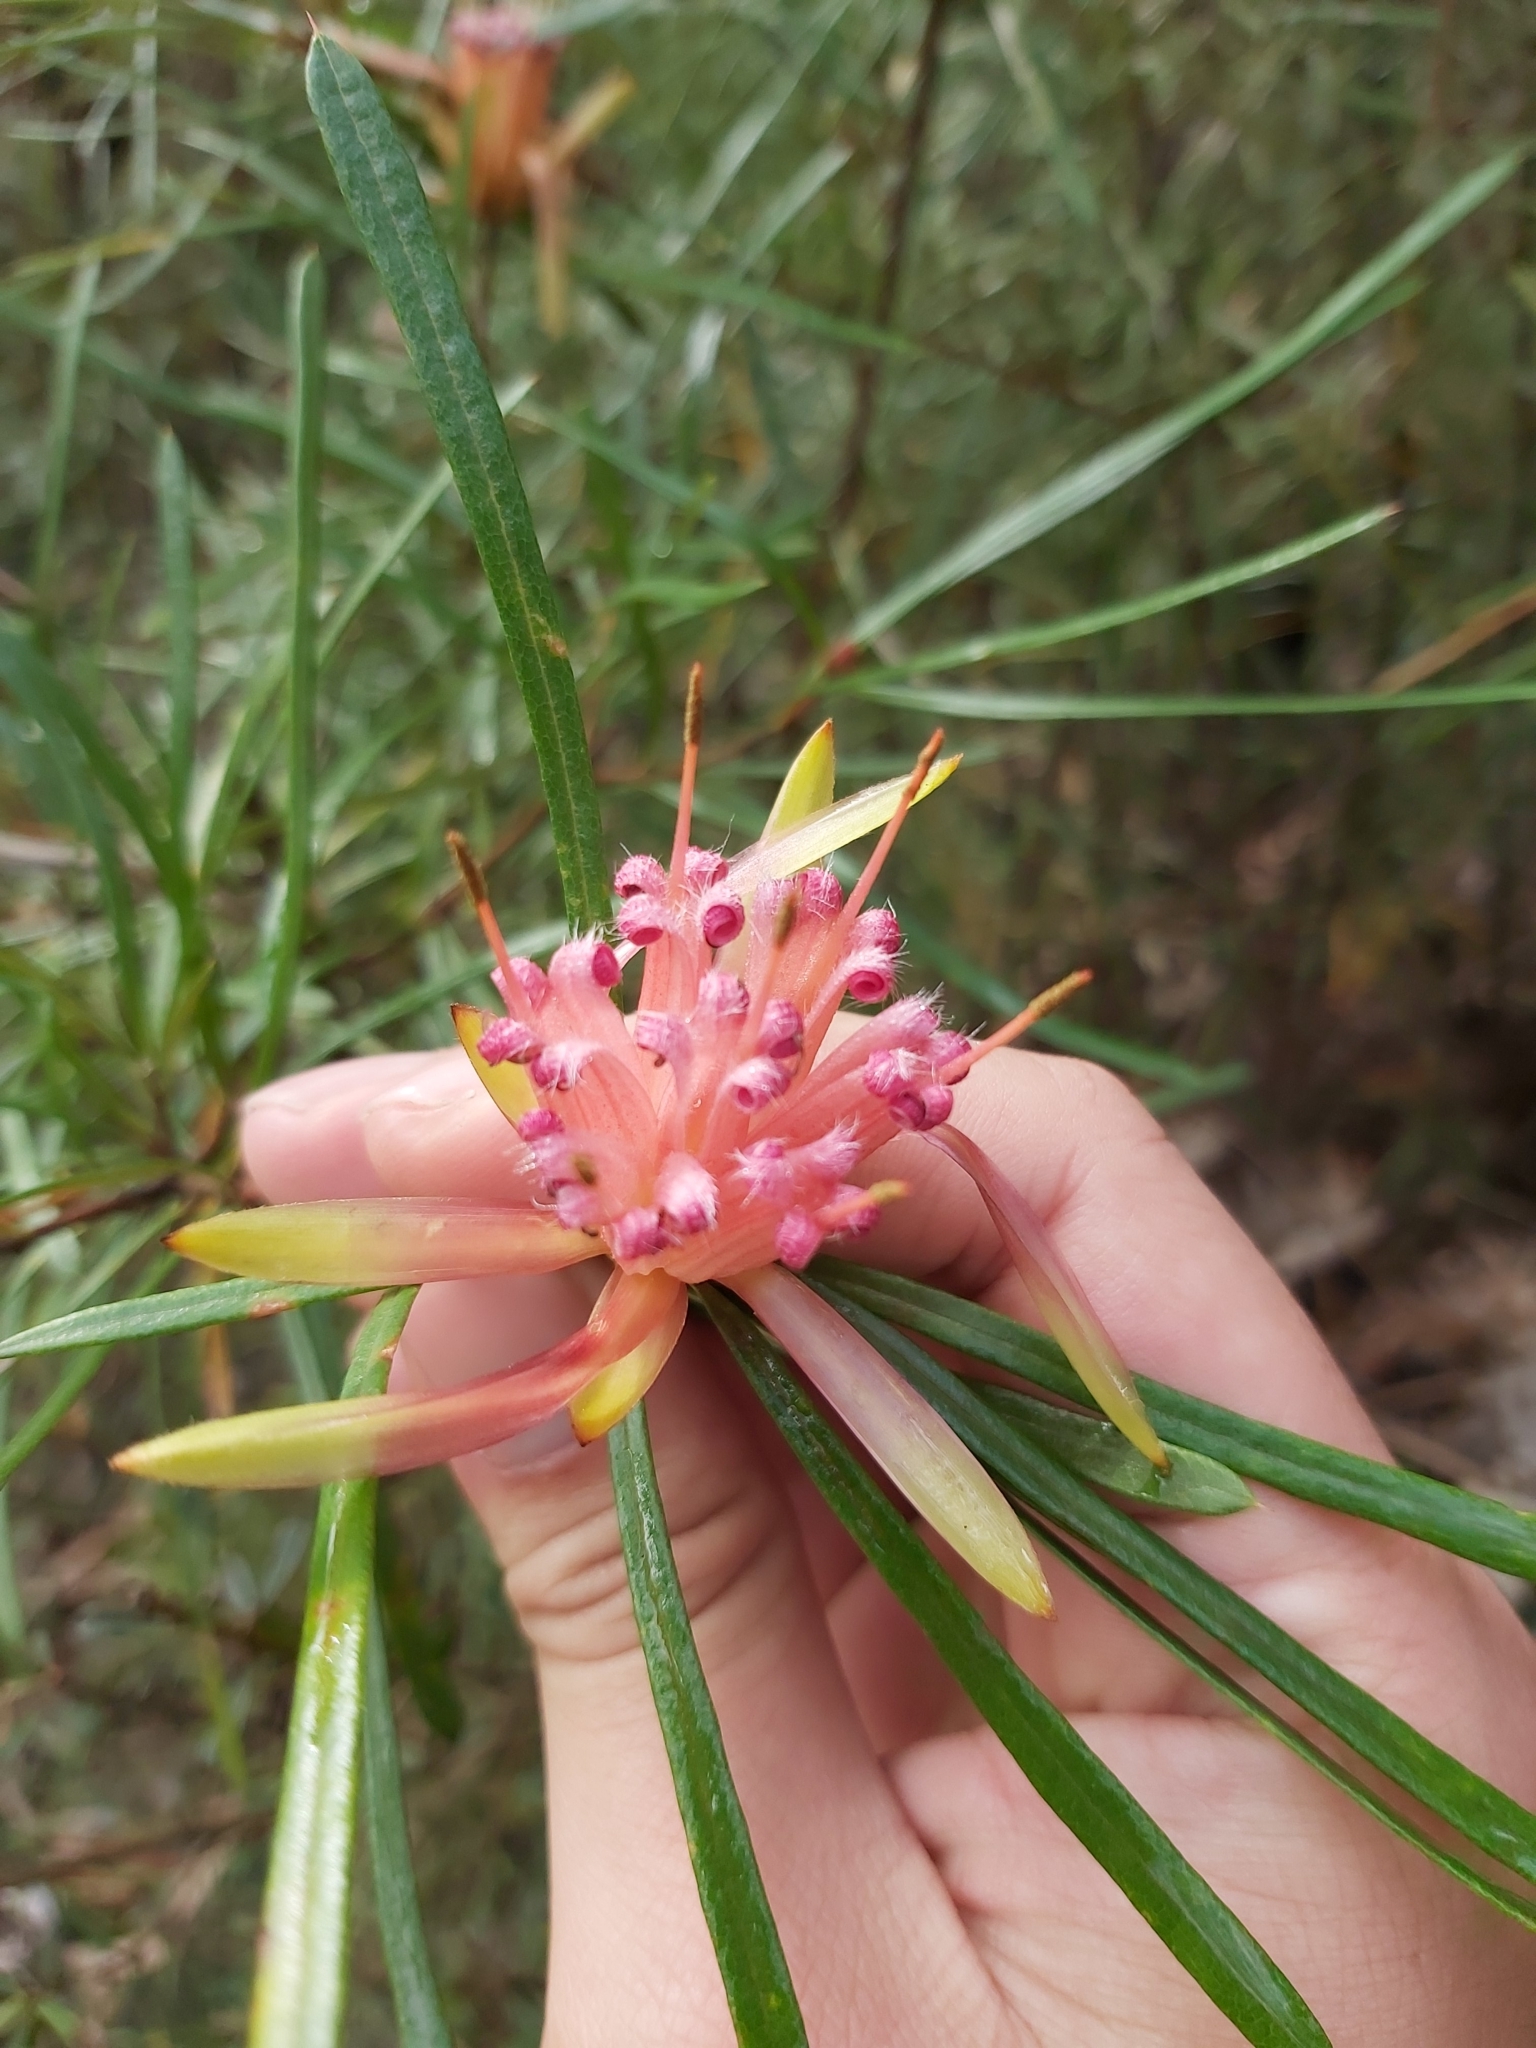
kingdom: Plantae
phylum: Tracheophyta
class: Magnoliopsida
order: Proteales
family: Proteaceae
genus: Lambertia
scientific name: Lambertia formosa
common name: Mountain-devil
